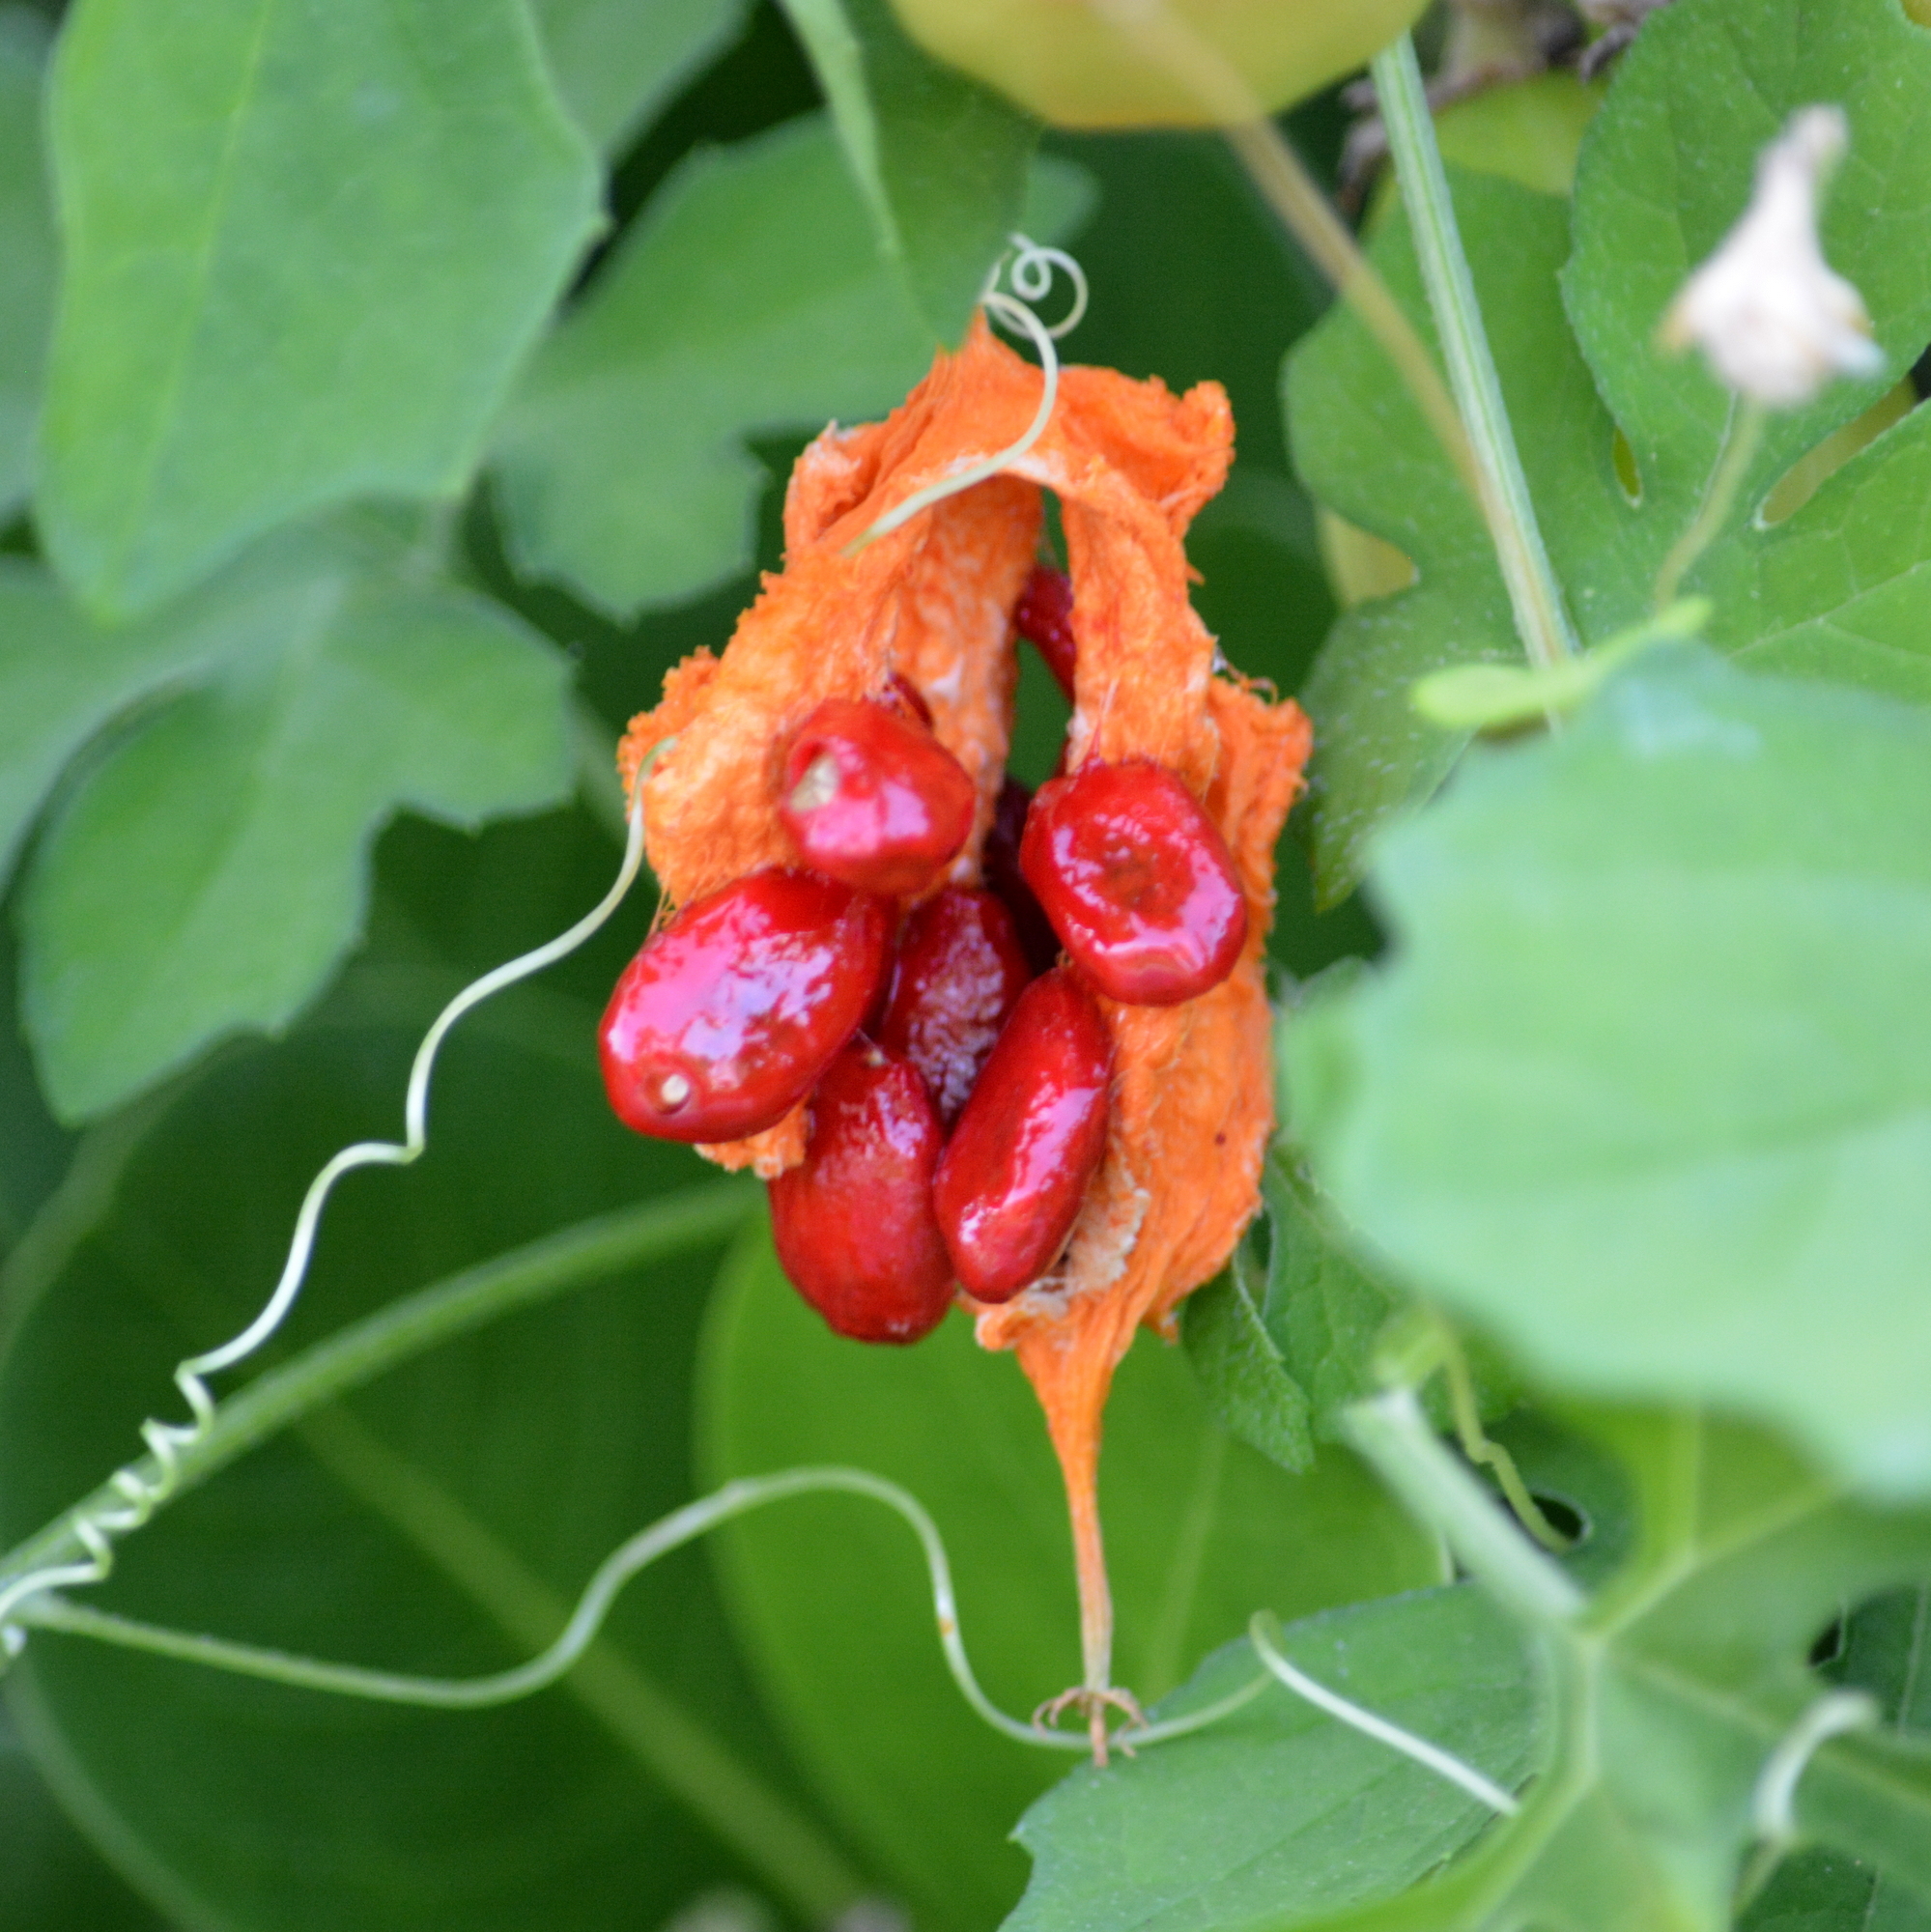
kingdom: Plantae
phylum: Tracheophyta
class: Magnoliopsida
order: Cucurbitales
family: Cucurbitaceae
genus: Momordica
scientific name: Momordica charantia
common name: Balsampear
